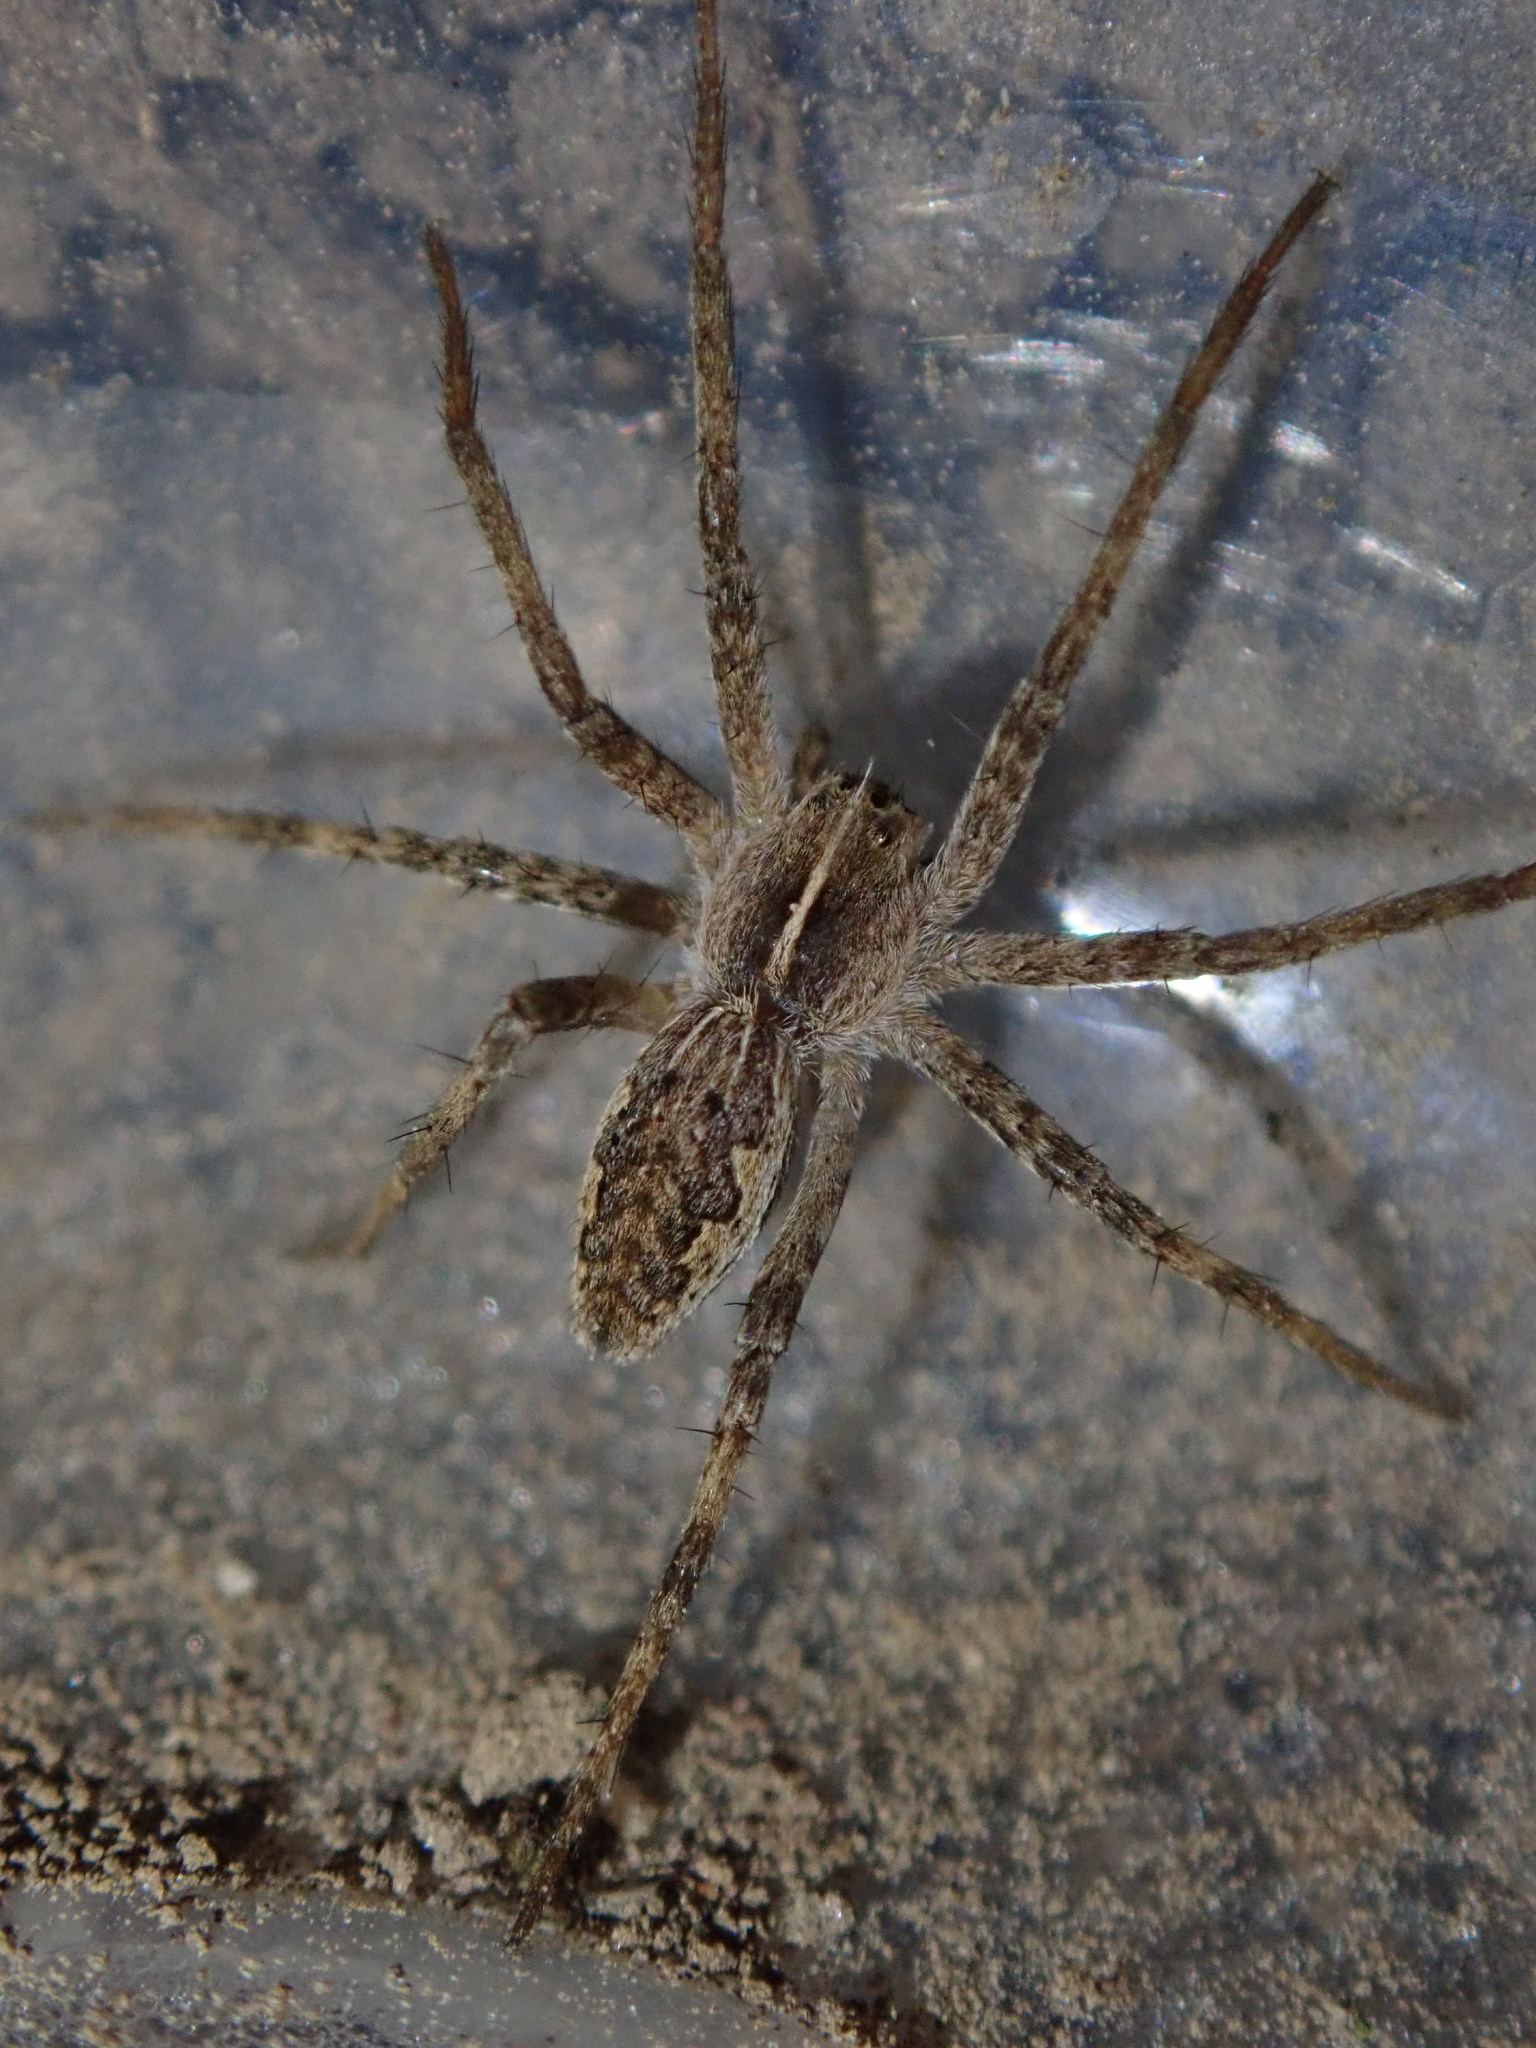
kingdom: Animalia
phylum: Arthropoda
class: Arachnida
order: Araneae
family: Pisauridae
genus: Pisaura
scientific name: Pisaura mirabilis
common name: Tent spider
